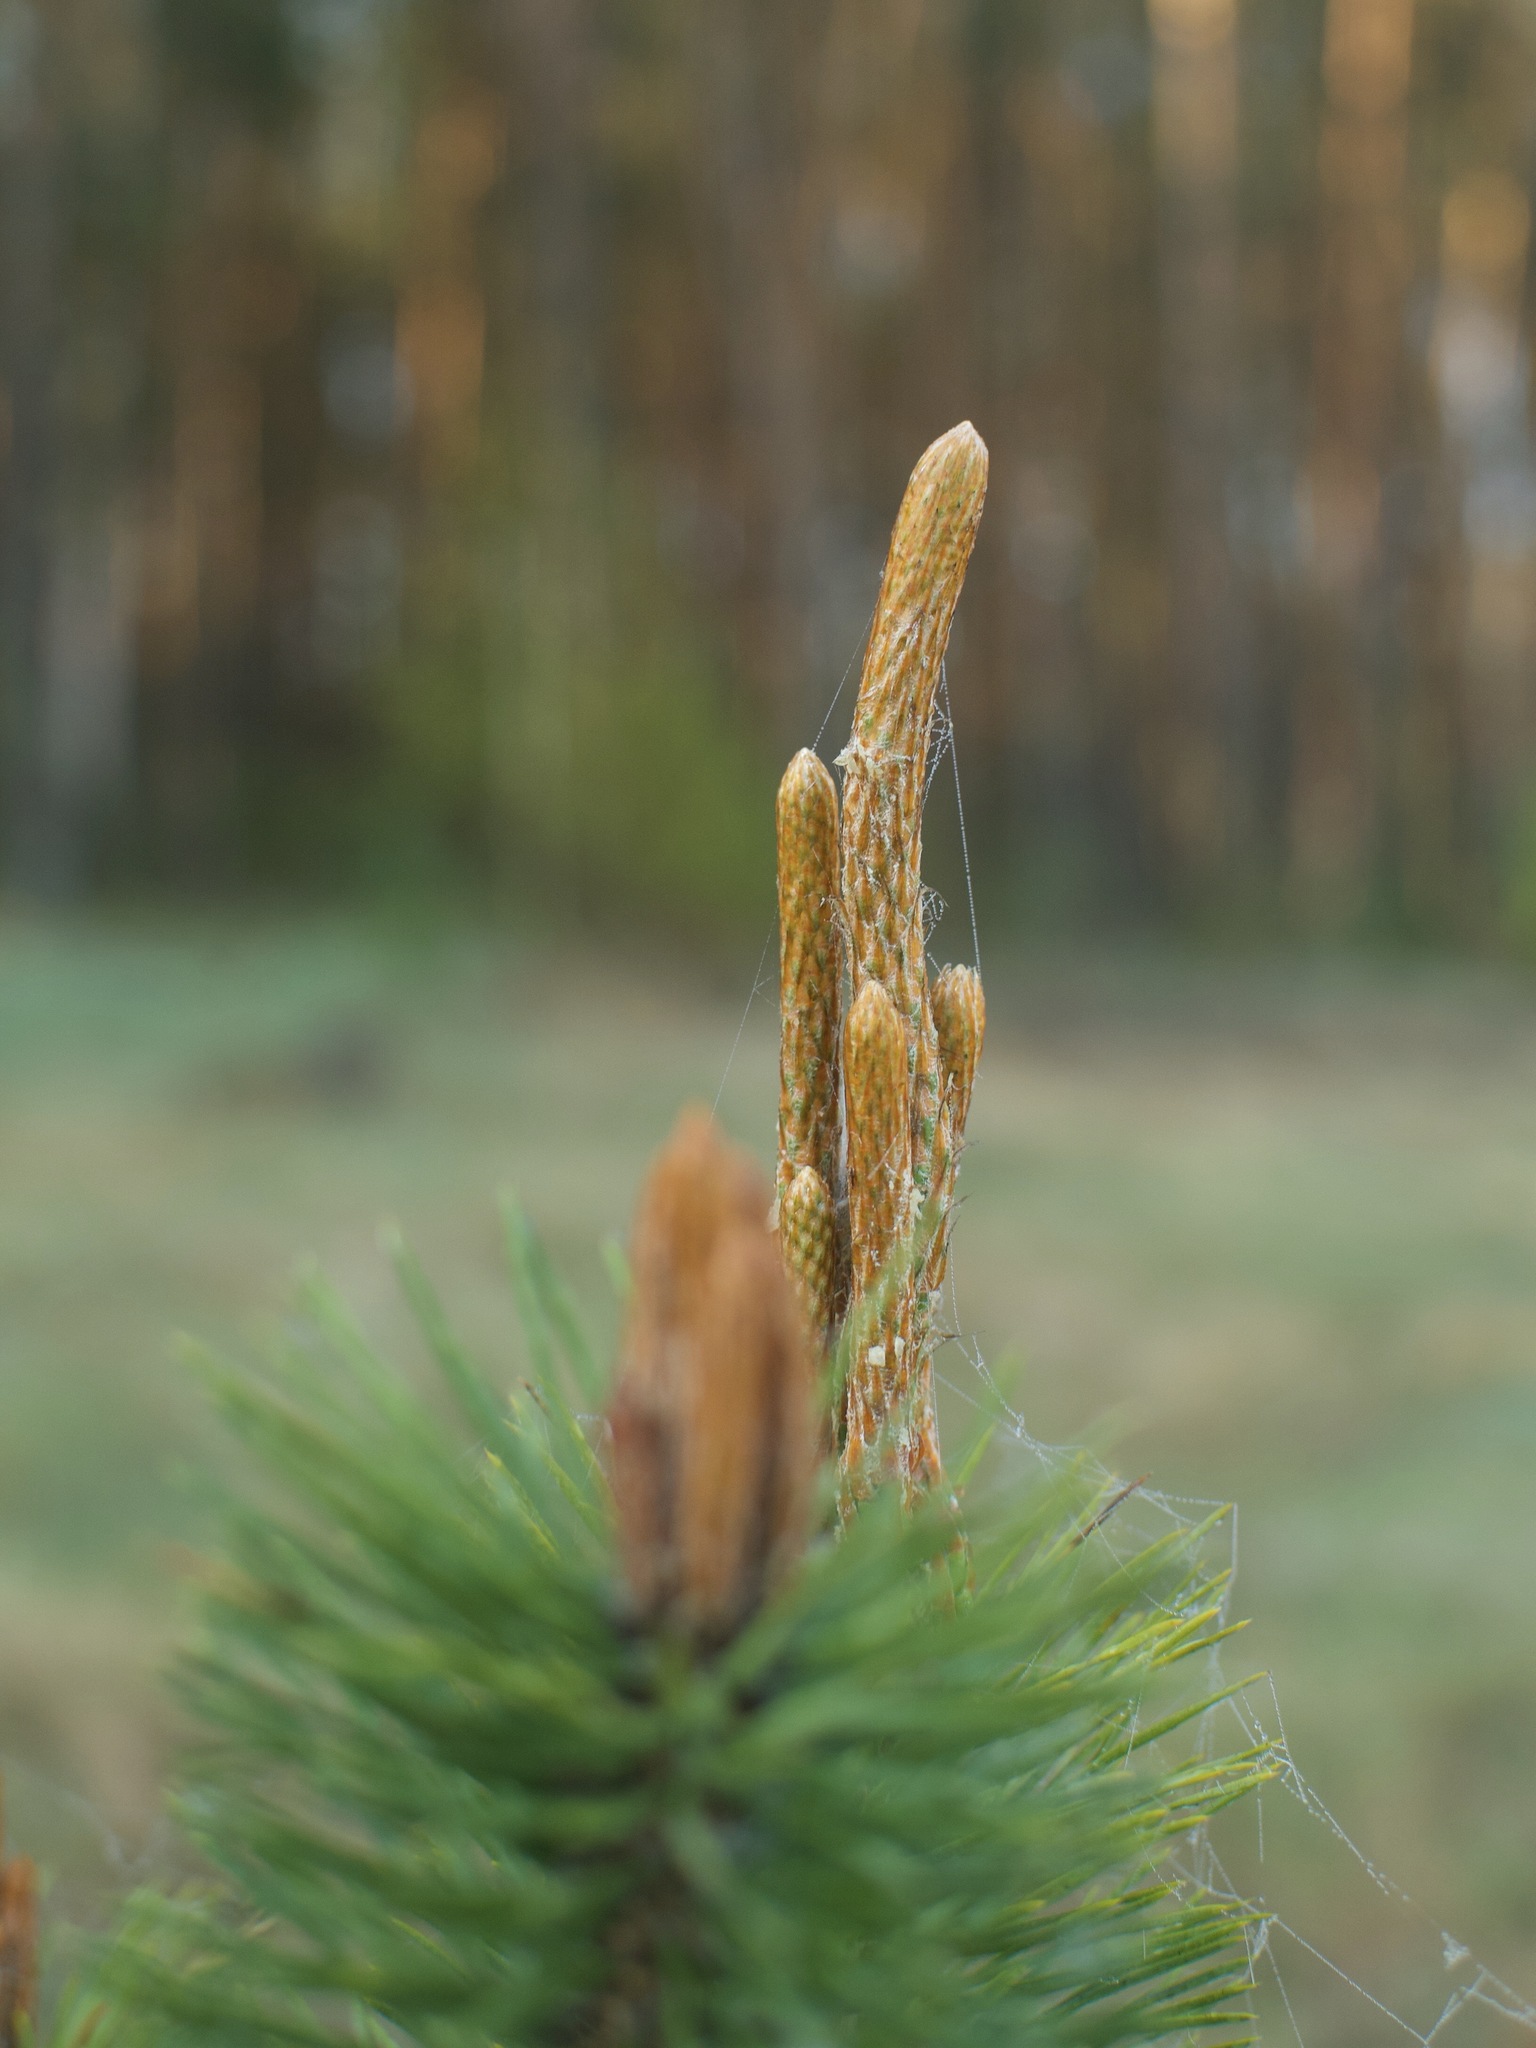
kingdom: Plantae
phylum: Tracheophyta
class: Pinopsida
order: Pinales
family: Pinaceae
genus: Pinus
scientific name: Pinus sylvestris
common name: Scots pine
